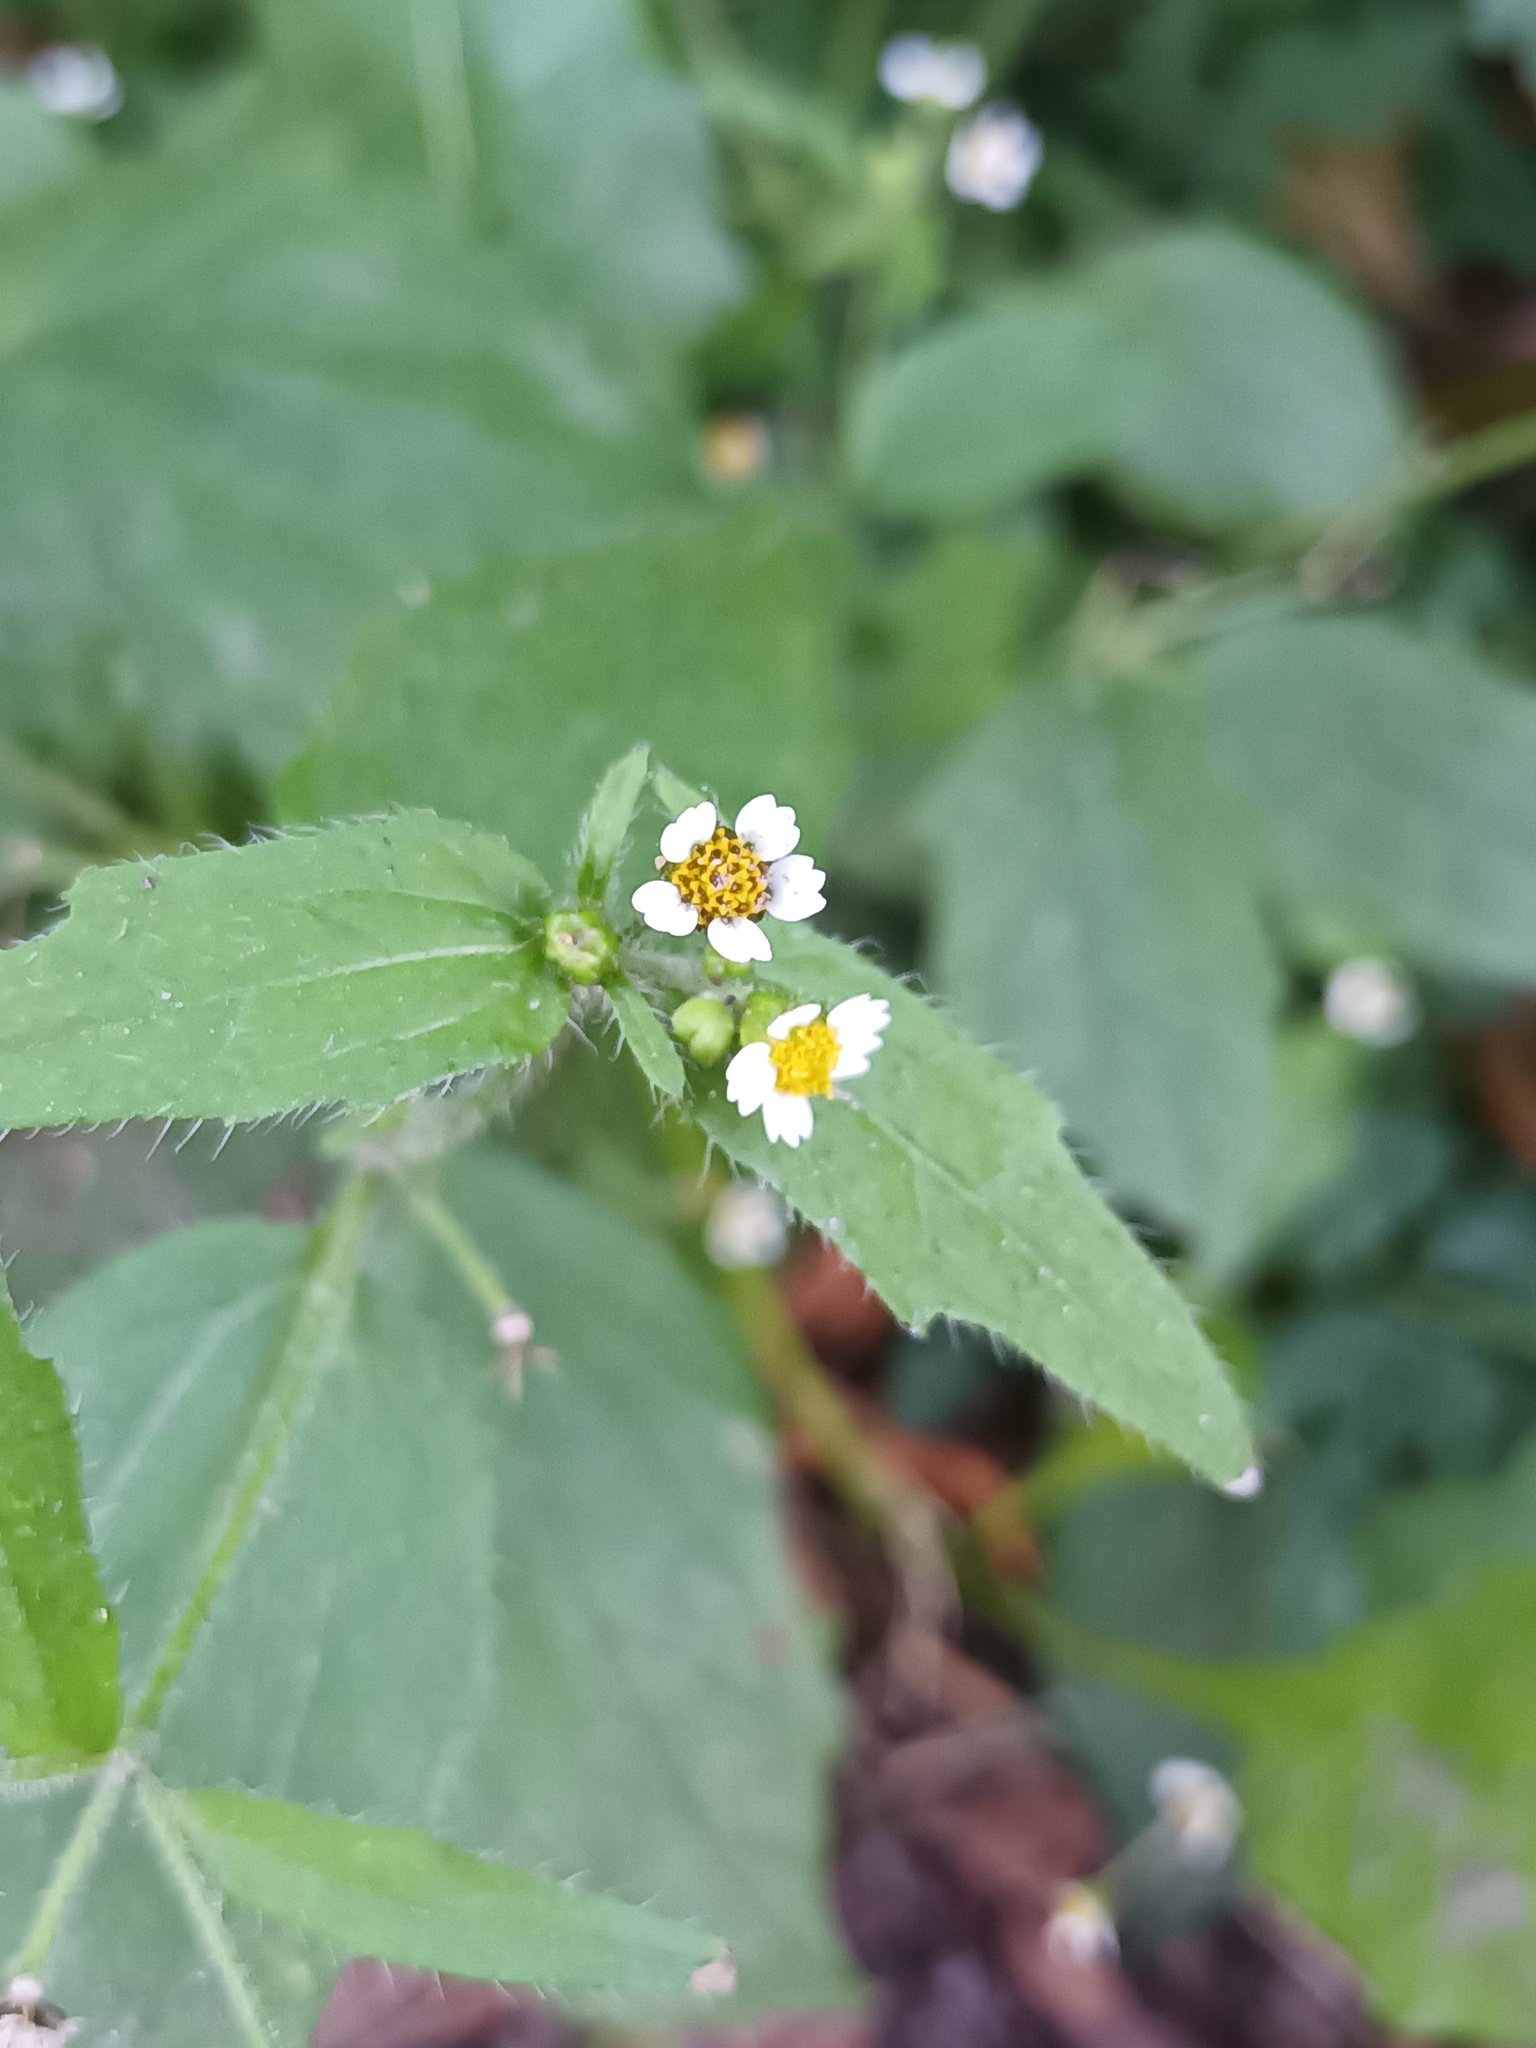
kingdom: Plantae
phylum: Tracheophyta
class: Magnoliopsida
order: Asterales
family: Asteraceae
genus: Galinsoga
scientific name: Galinsoga quadriradiata
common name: Shaggy soldier
